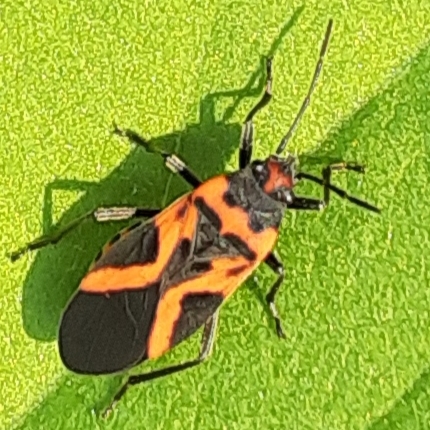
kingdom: Animalia
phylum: Arthropoda
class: Insecta
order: Hemiptera
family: Lygaeidae
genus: Lygaeus
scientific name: Lygaeus turcicus
